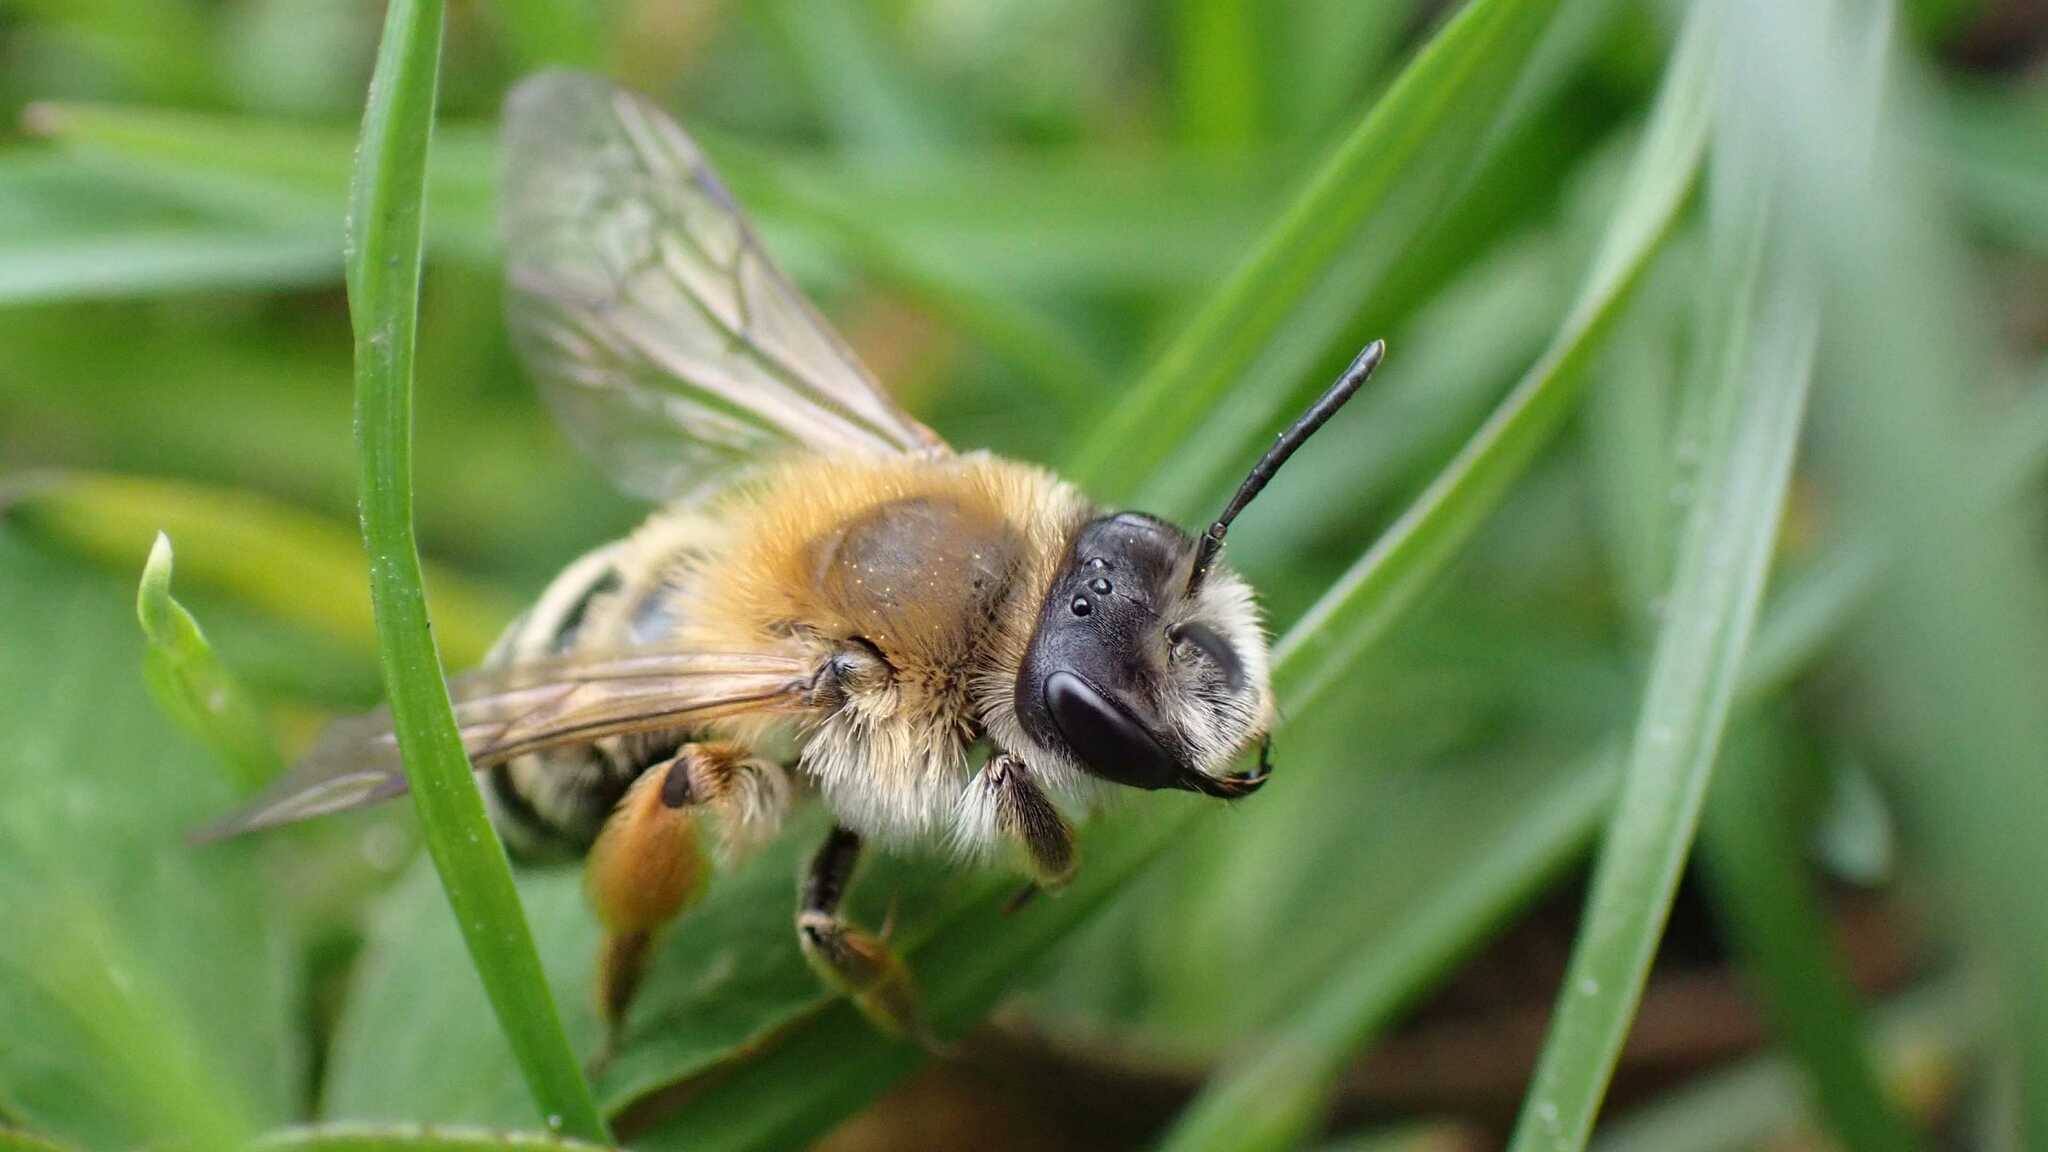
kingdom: Animalia
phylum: Arthropoda
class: Insecta
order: Hymenoptera
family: Andrenidae
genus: Andrena
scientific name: Andrena gravida
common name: White-bellied mining bee
